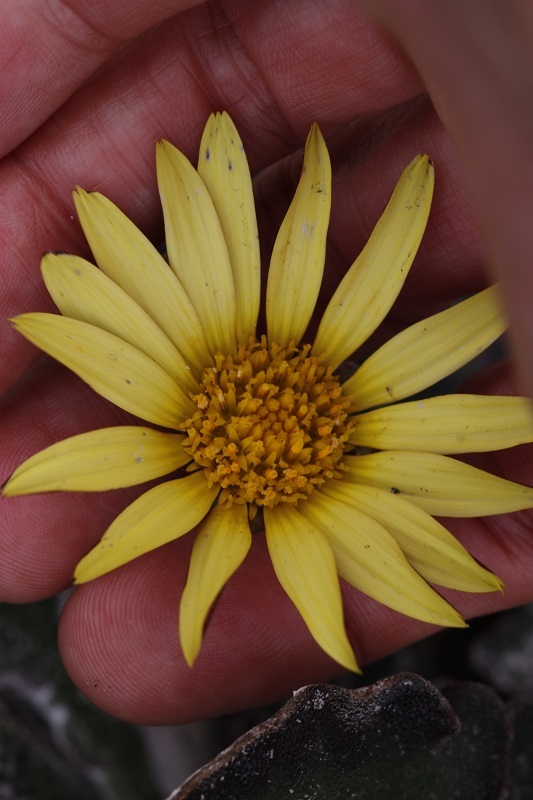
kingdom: Plantae
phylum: Tracheophyta
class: Magnoliopsida
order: Asterales
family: Asteraceae
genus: Haplocarpha
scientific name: Haplocarpha lanata
